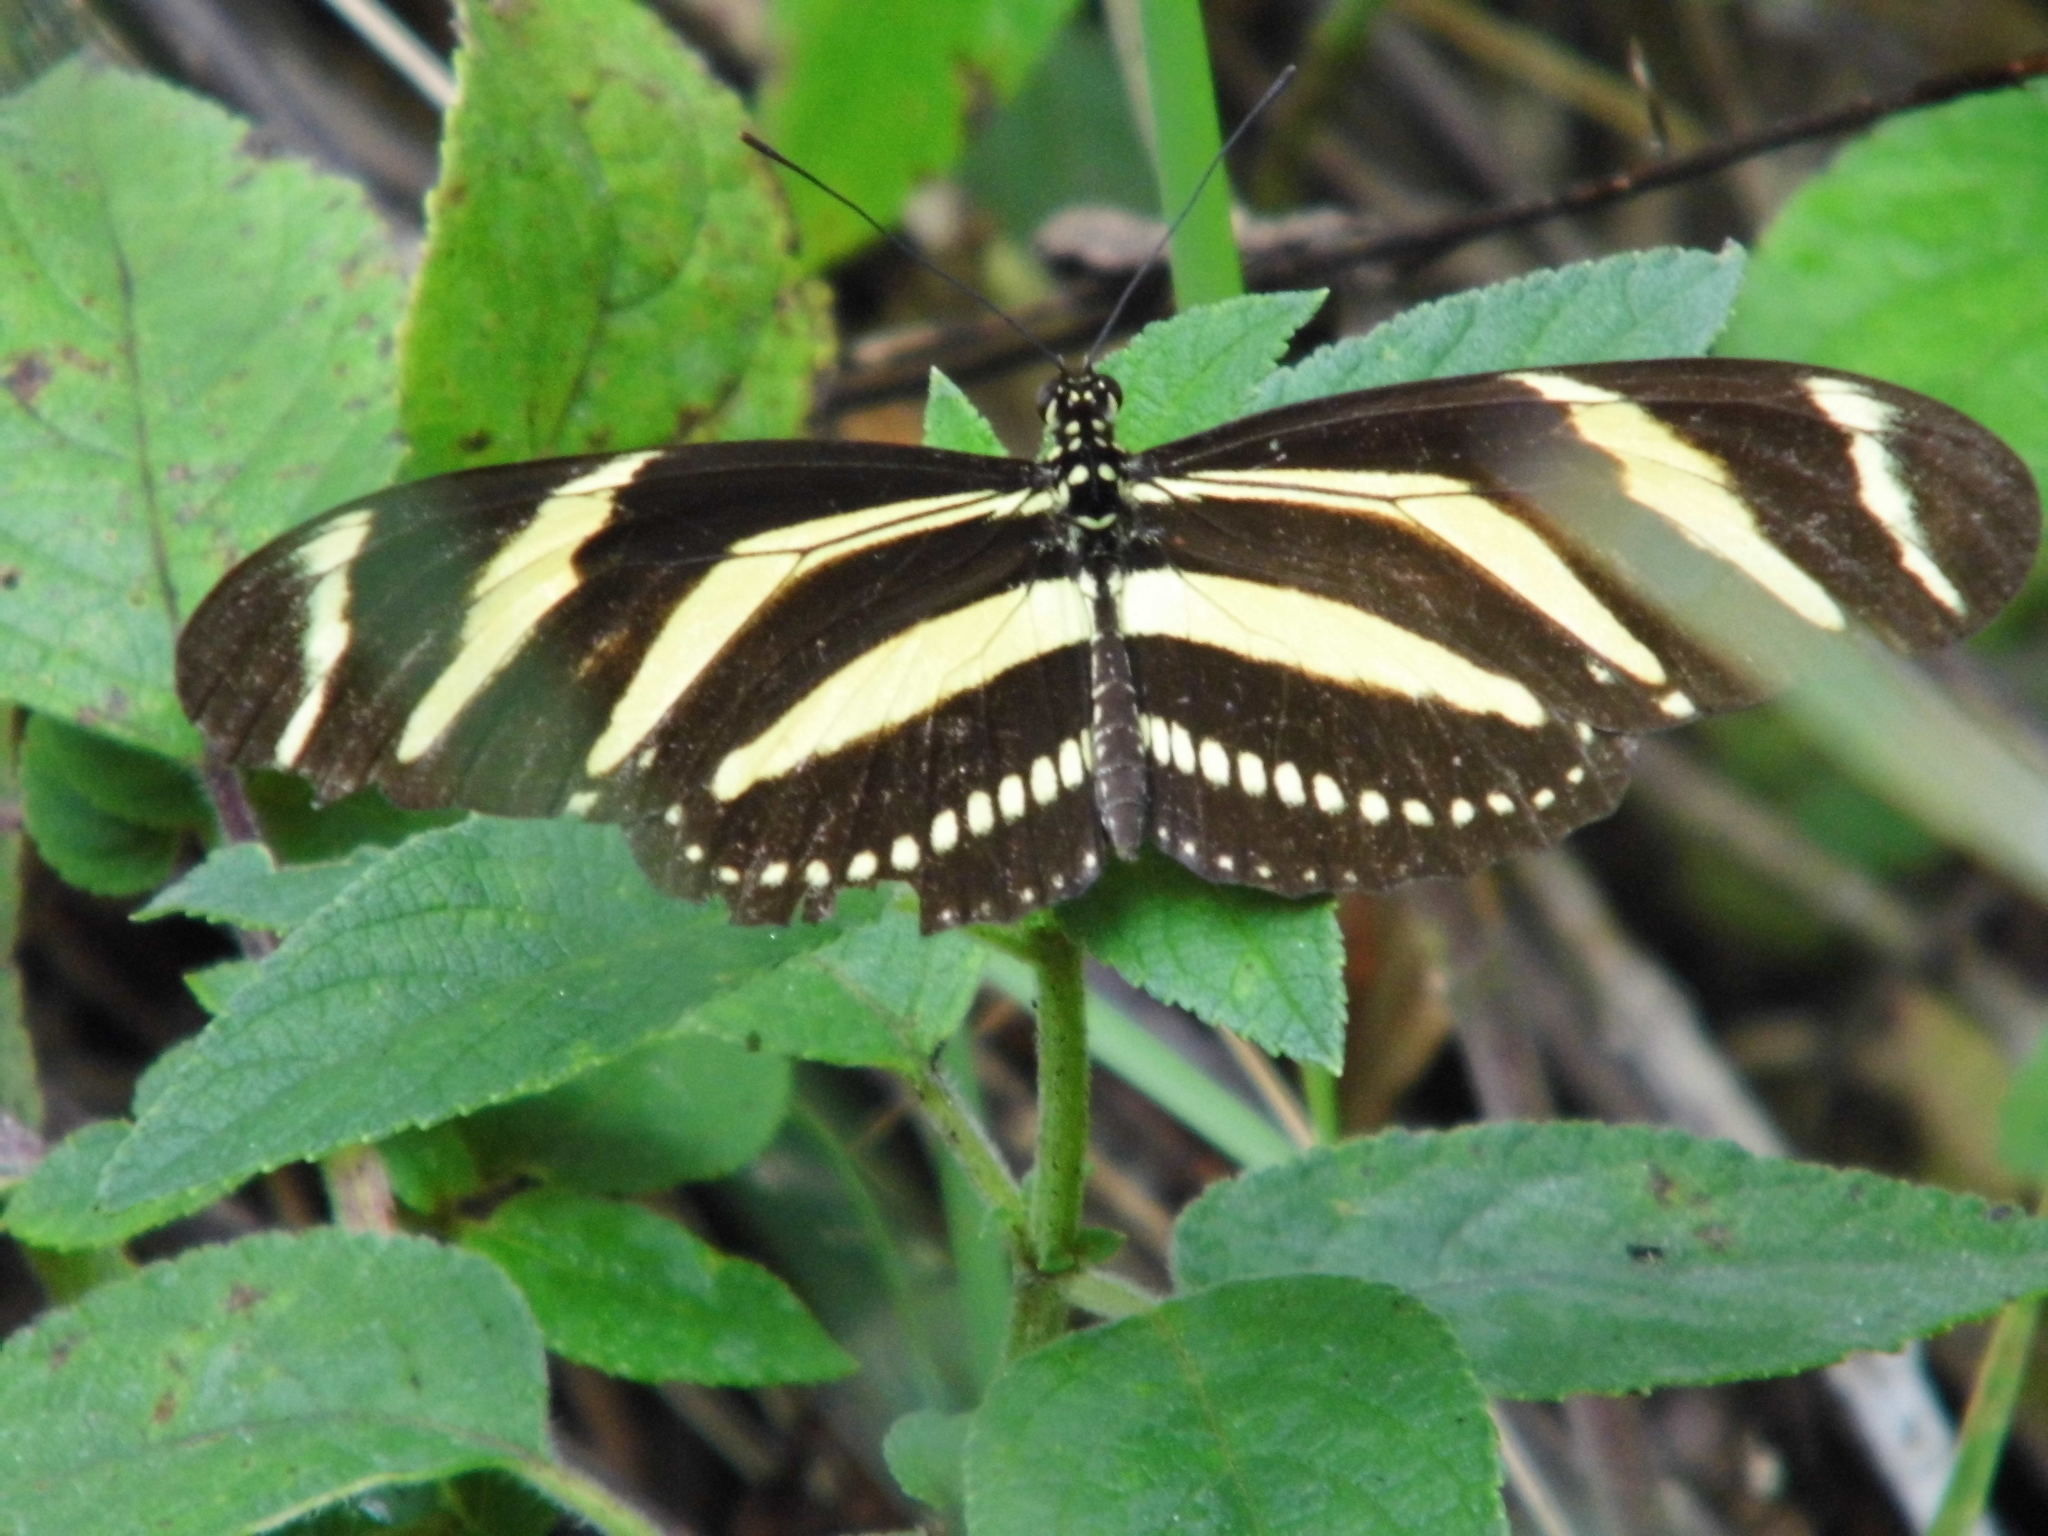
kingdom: Animalia
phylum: Arthropoda
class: Insecta
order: Lepidoptera
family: Nymphalidae
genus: Heliconius
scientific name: Heliconius charithonia
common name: Zebra long wing
